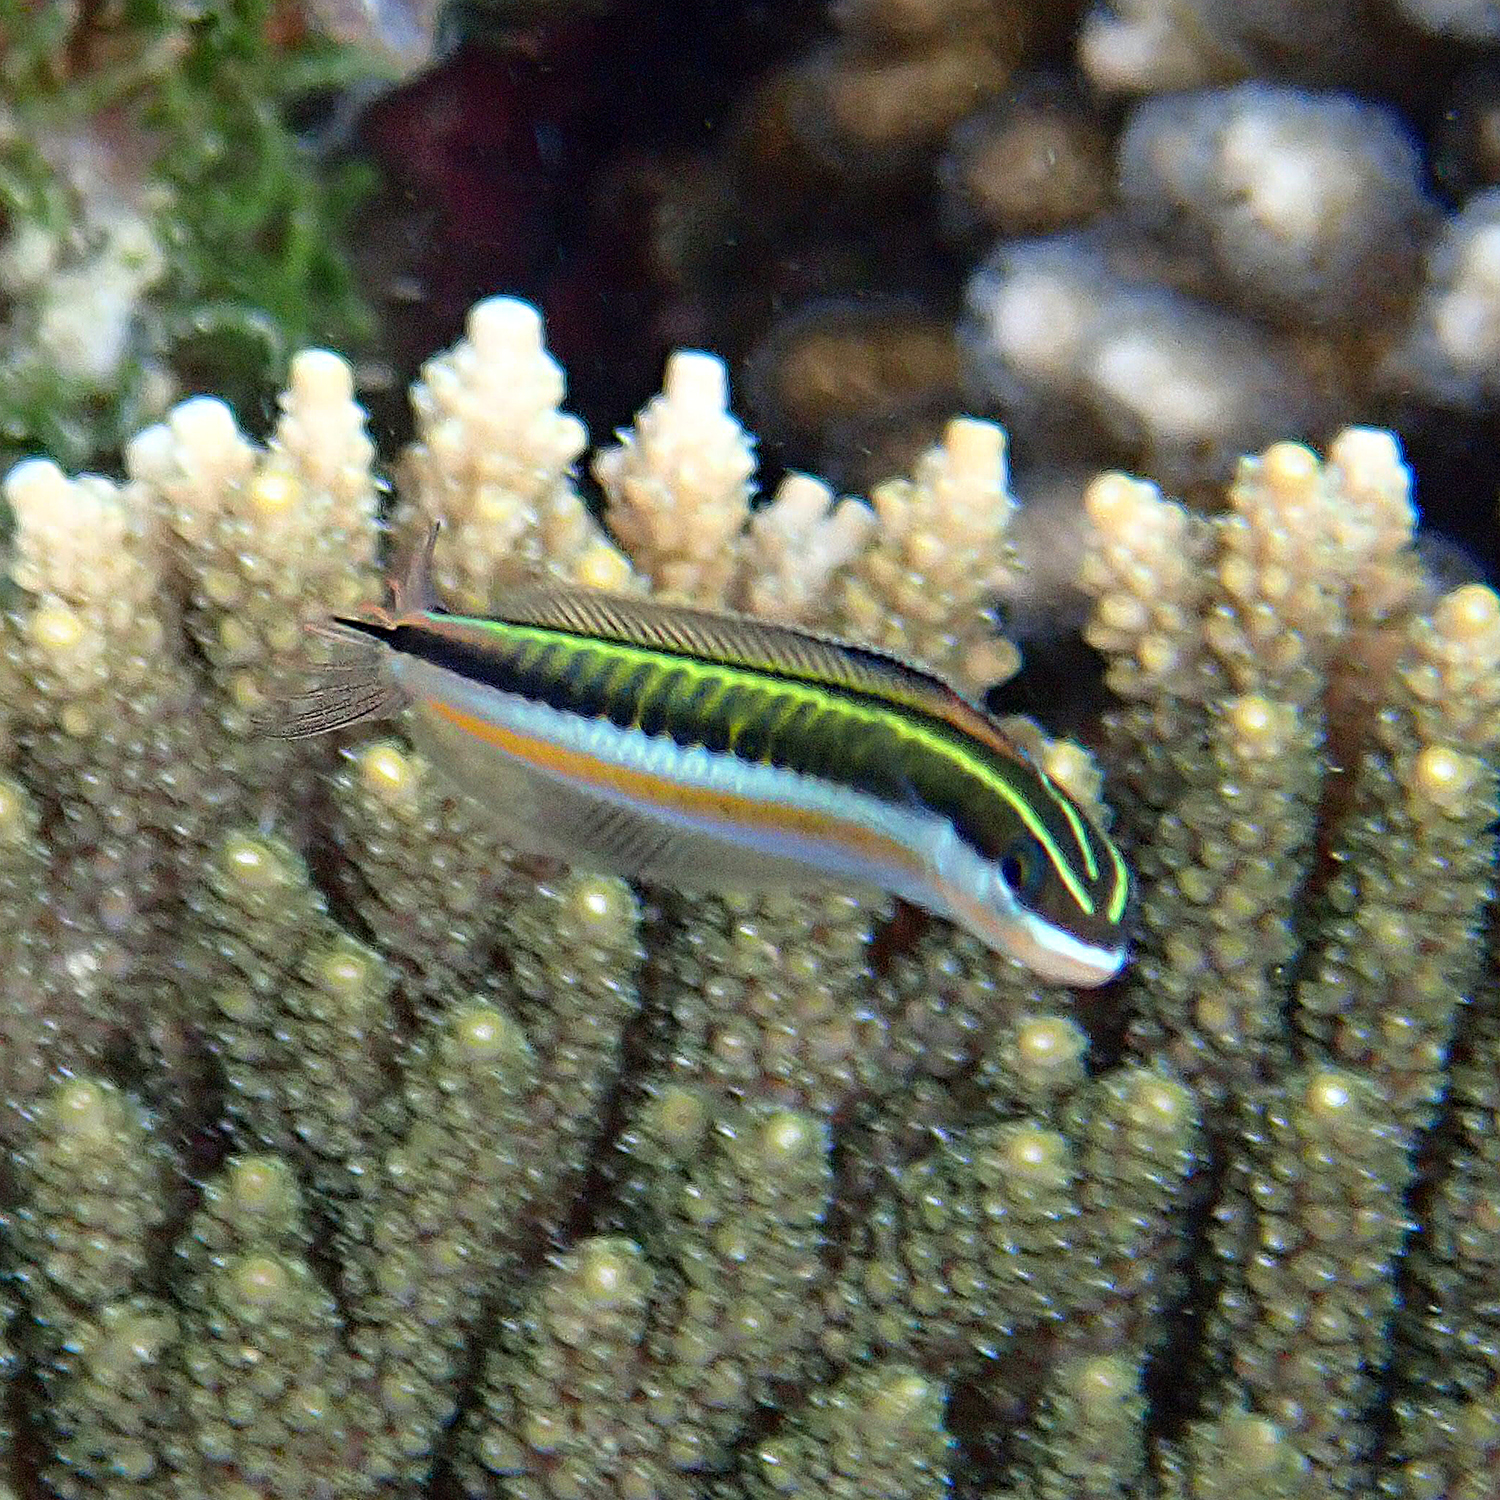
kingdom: Animalia
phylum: Chordata
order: Perciformes
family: Blenniidae
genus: Plagiotremus
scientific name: Plagiotremus tapeinosoma
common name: Hit and run blenny
